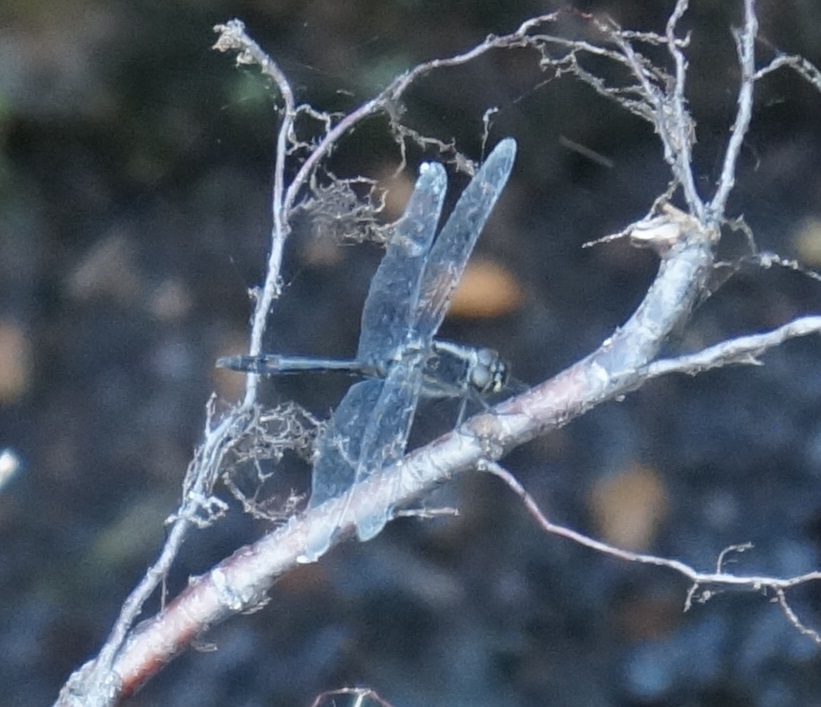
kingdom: Animalia
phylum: Arthropoda
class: Insecta
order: Odonata
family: Libellulidae
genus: Sympetrum
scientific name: Sympetrum danae
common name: Black darter
